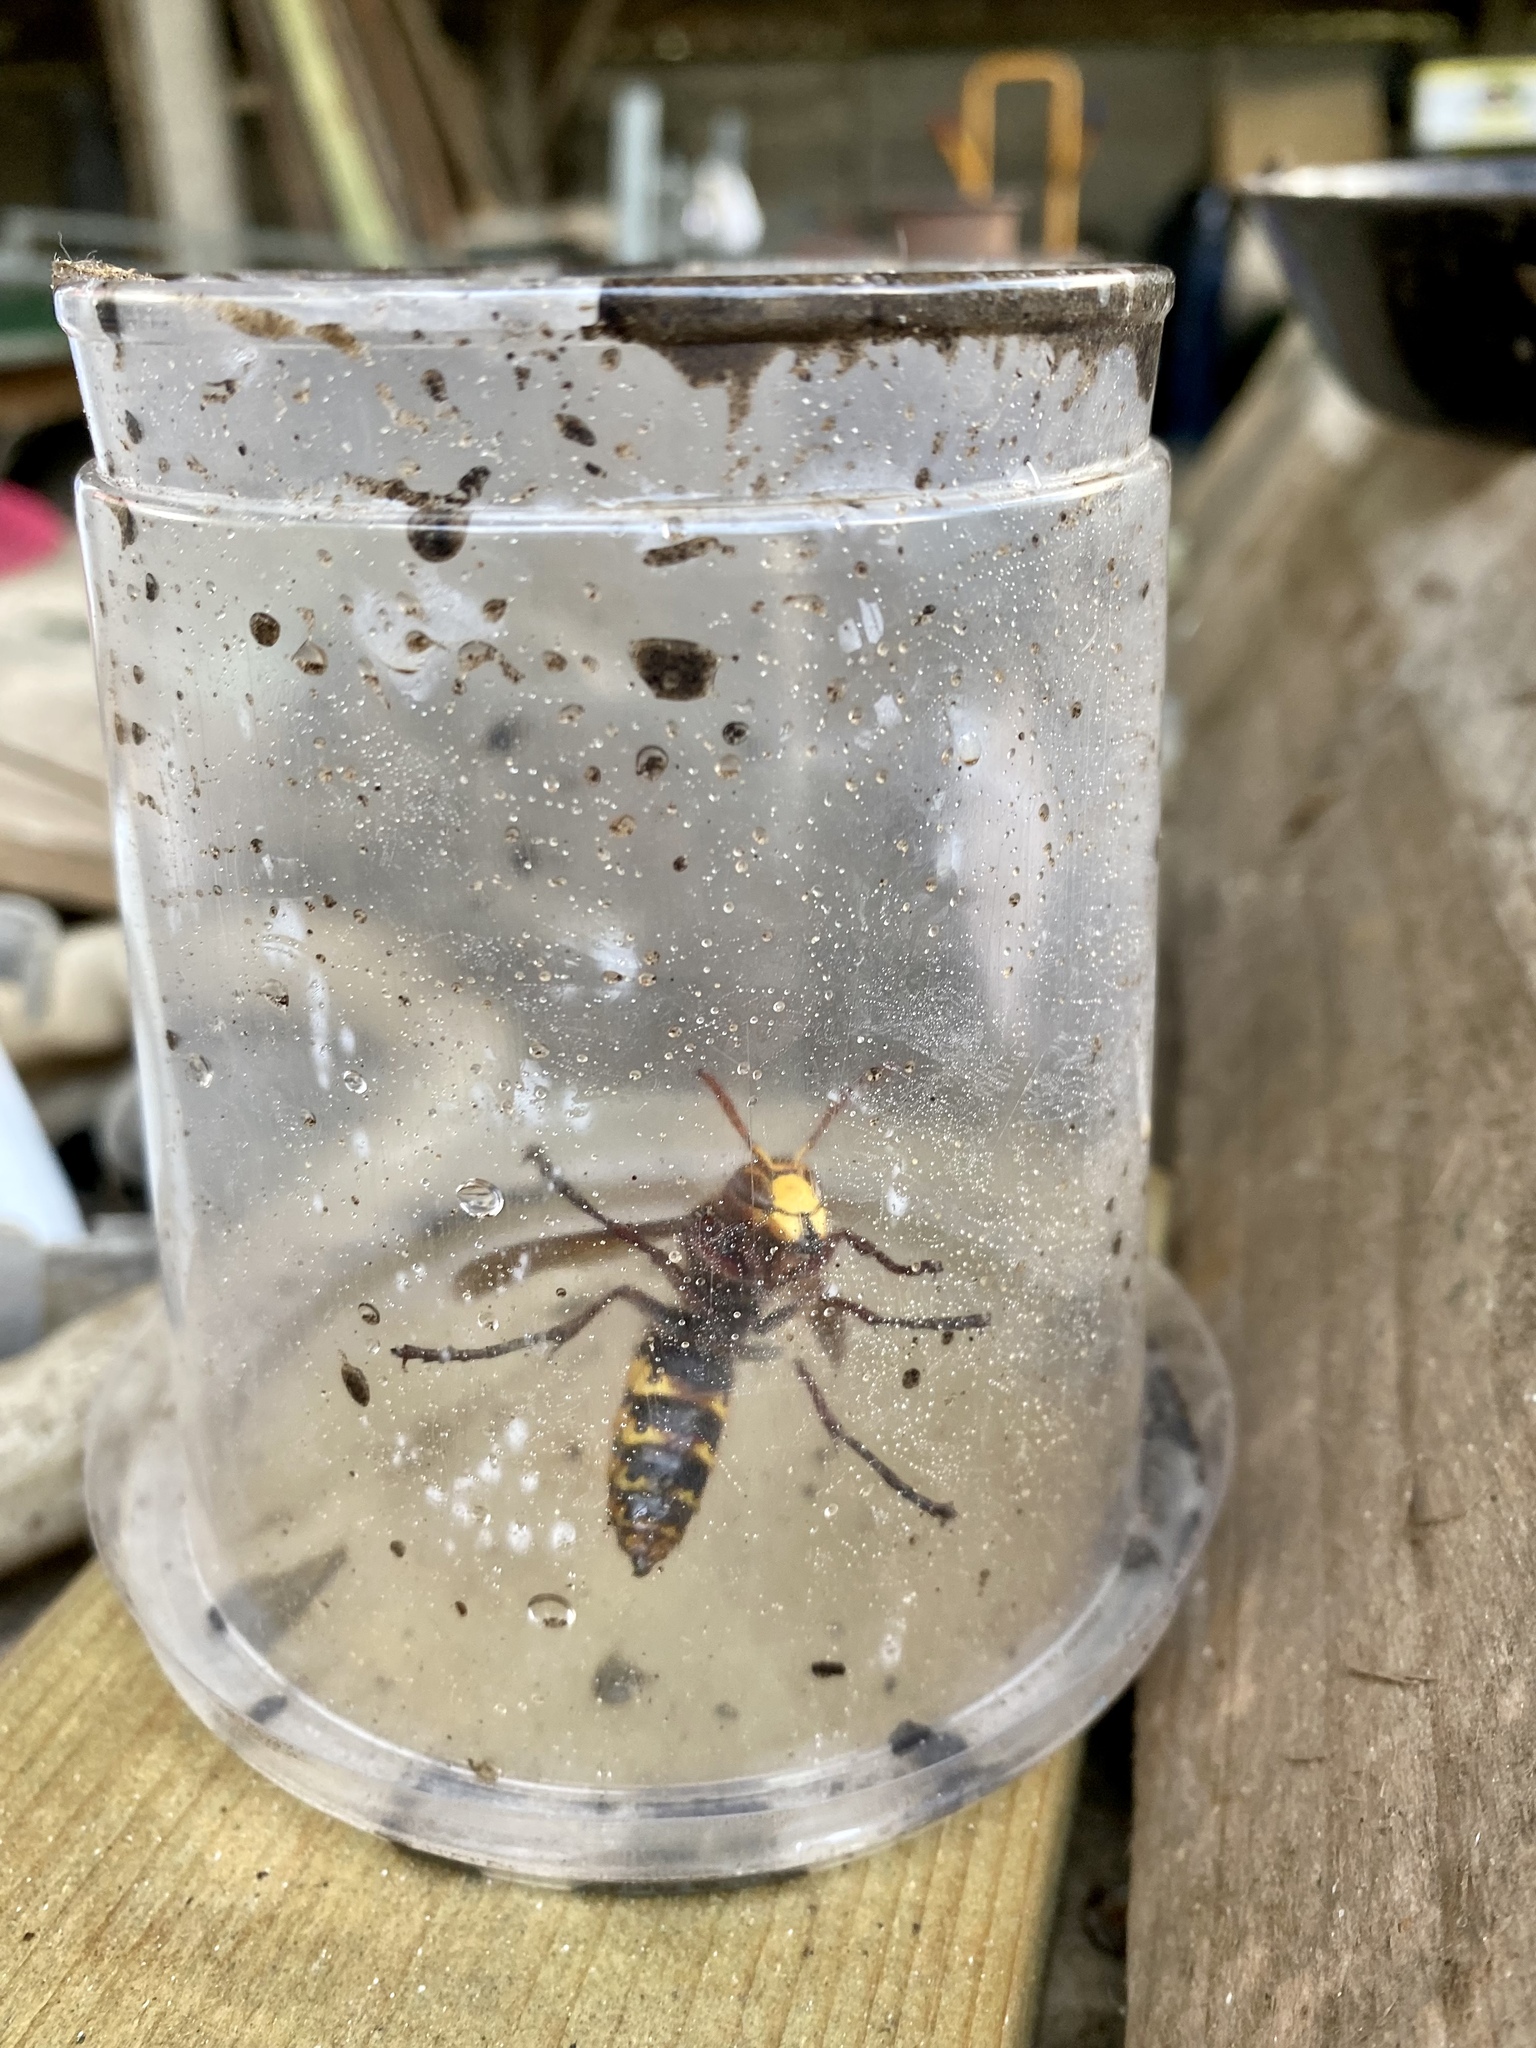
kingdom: Animalia
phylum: Arthropoda
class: Insecta
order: Hymenoptera
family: Vespidae
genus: Vespa
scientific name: Vespa crabro
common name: Hornet
